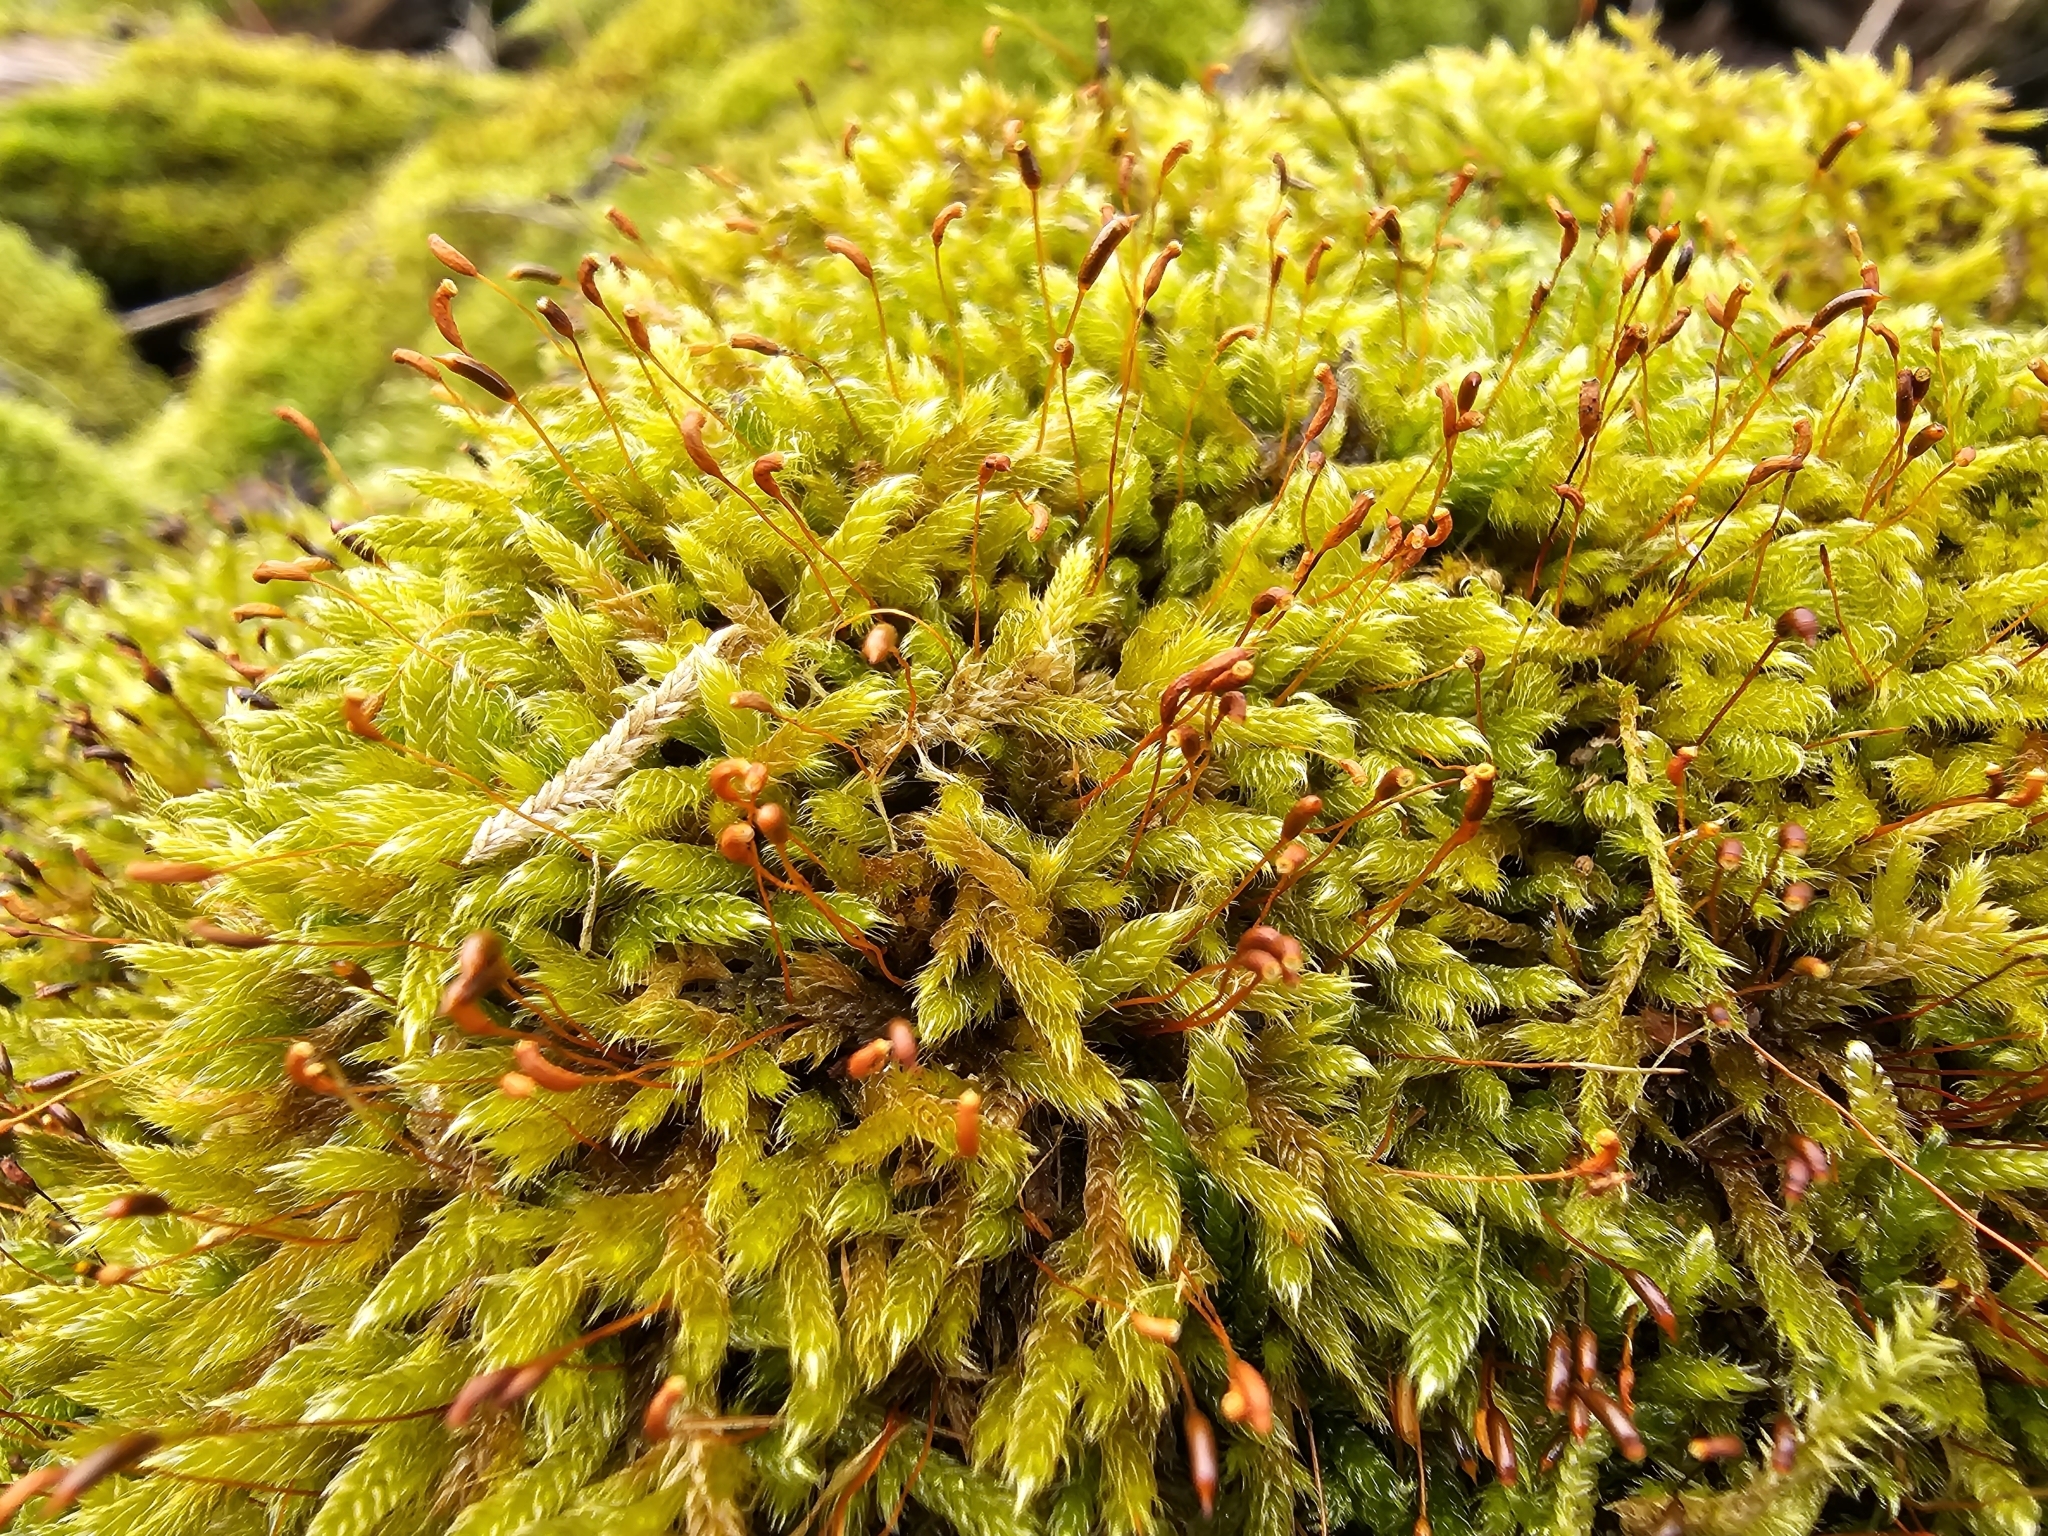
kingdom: Plantae
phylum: Bryophyta
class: Bryopsida
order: Hypnales
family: Hypnaceae
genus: Hypnum
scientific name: Hypnum cupressiforme
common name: Cypress-leaved plait-moss
